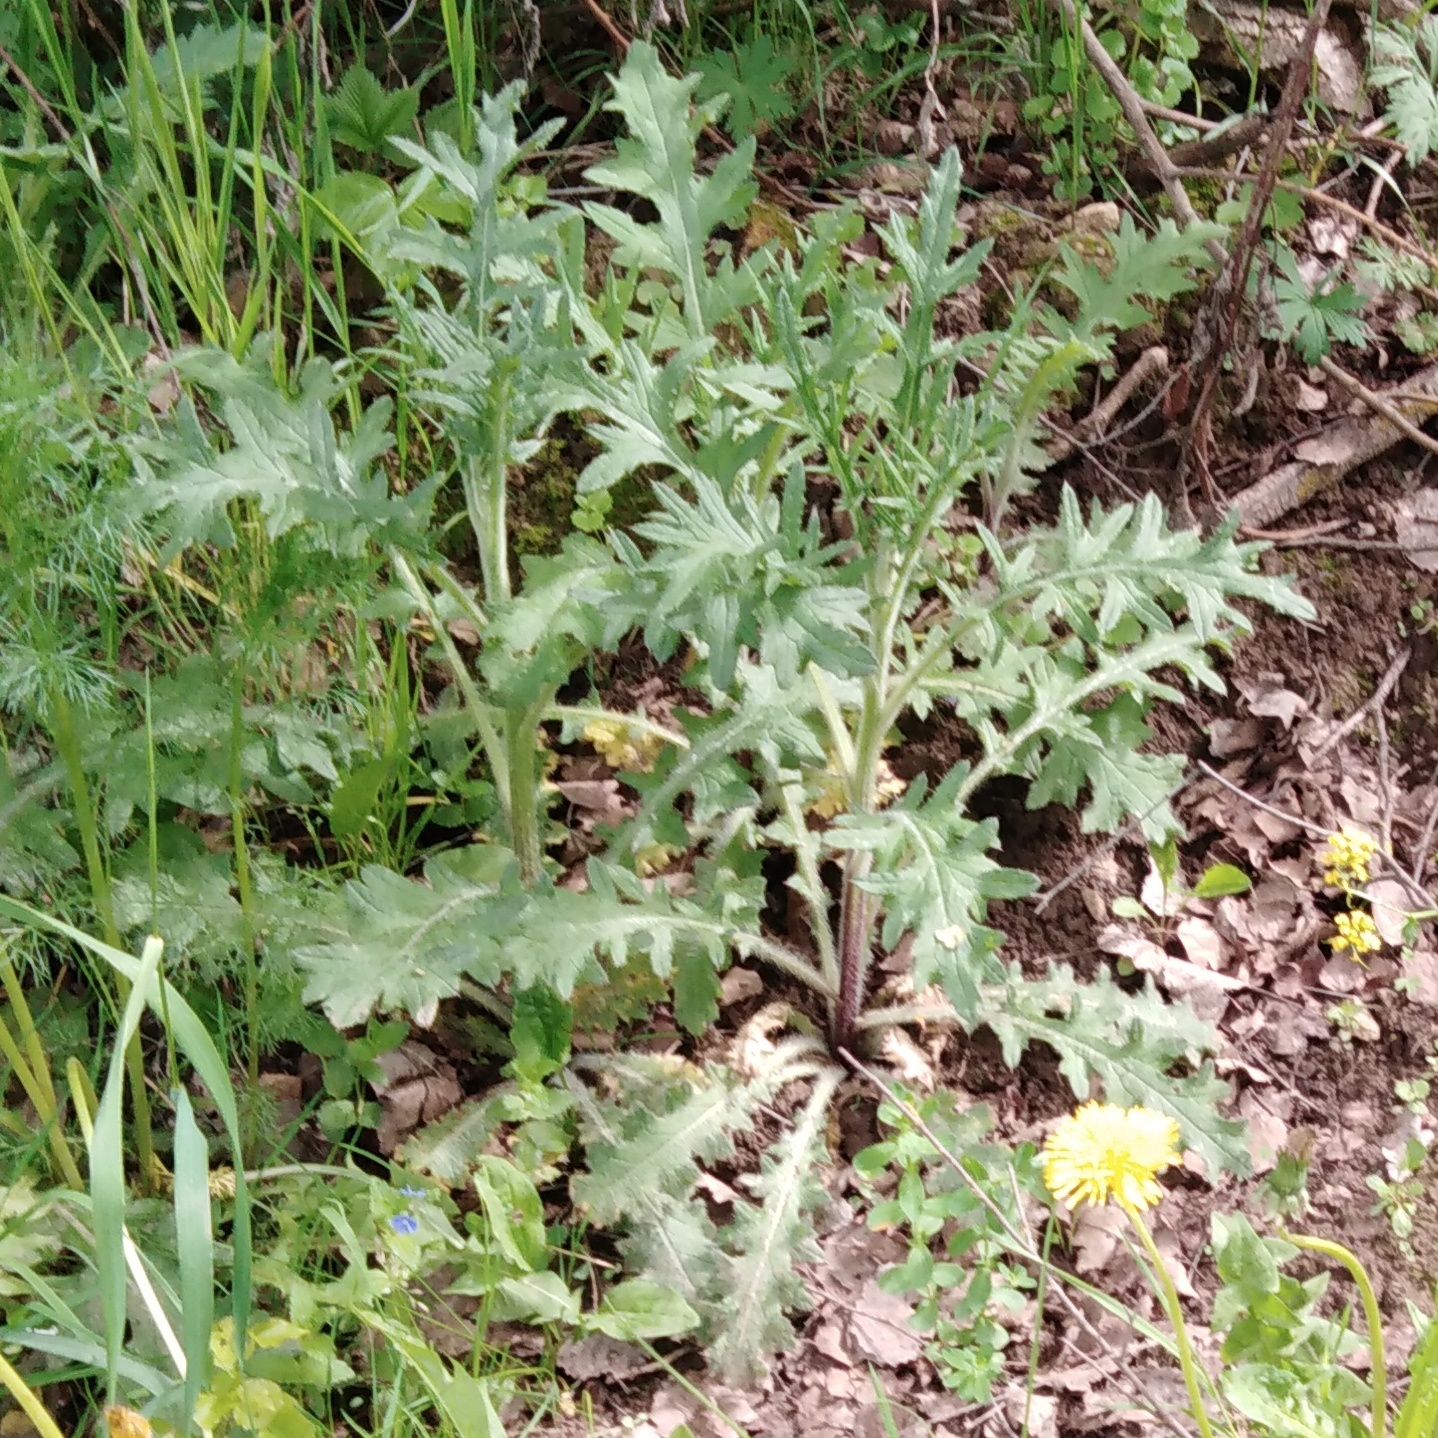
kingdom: Plantae
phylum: Tracheophyta
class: Magnoliopsida
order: Asterales
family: Asteraceae
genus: Cirsium
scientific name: Cirsium vulgare
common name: Bull thistle
